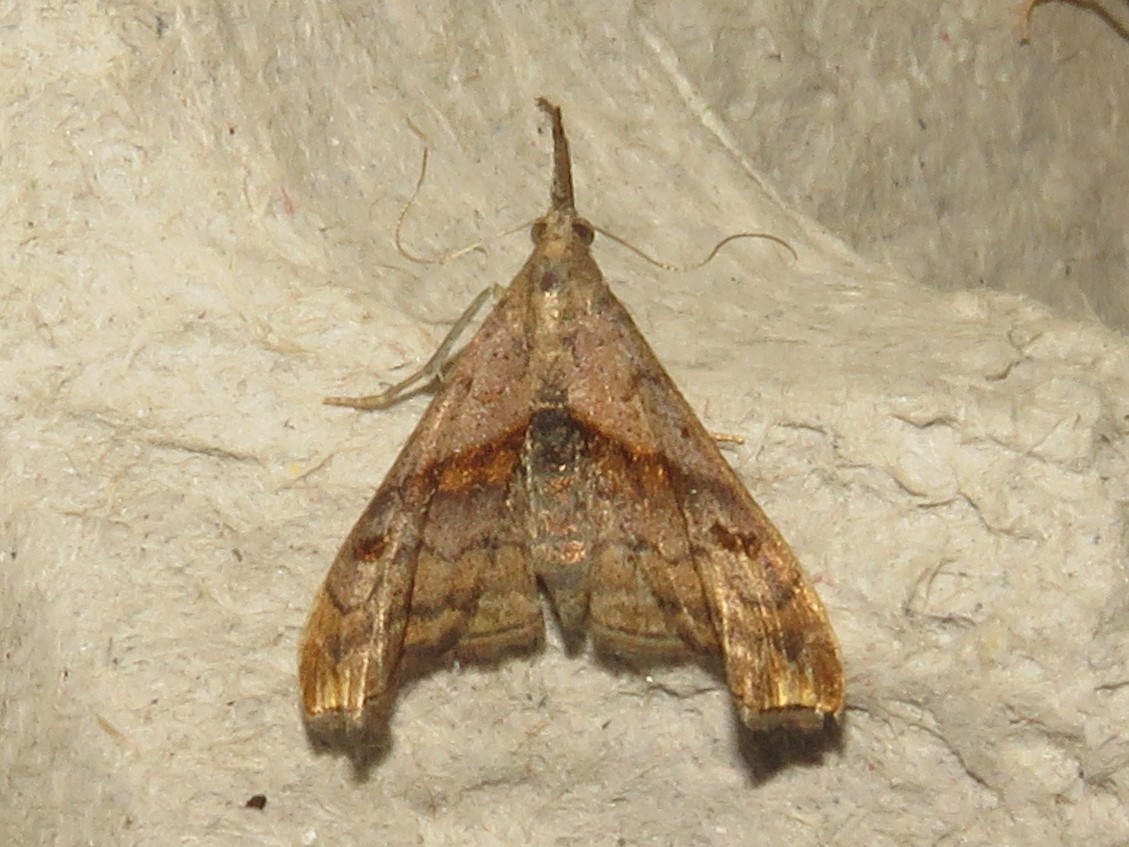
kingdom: Animalia
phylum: Arthropoda
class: Insecta
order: Lepidoptera
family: Erebidae
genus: Palthis
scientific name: Palthis angulalis
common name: Dark-spotted palthis moth
